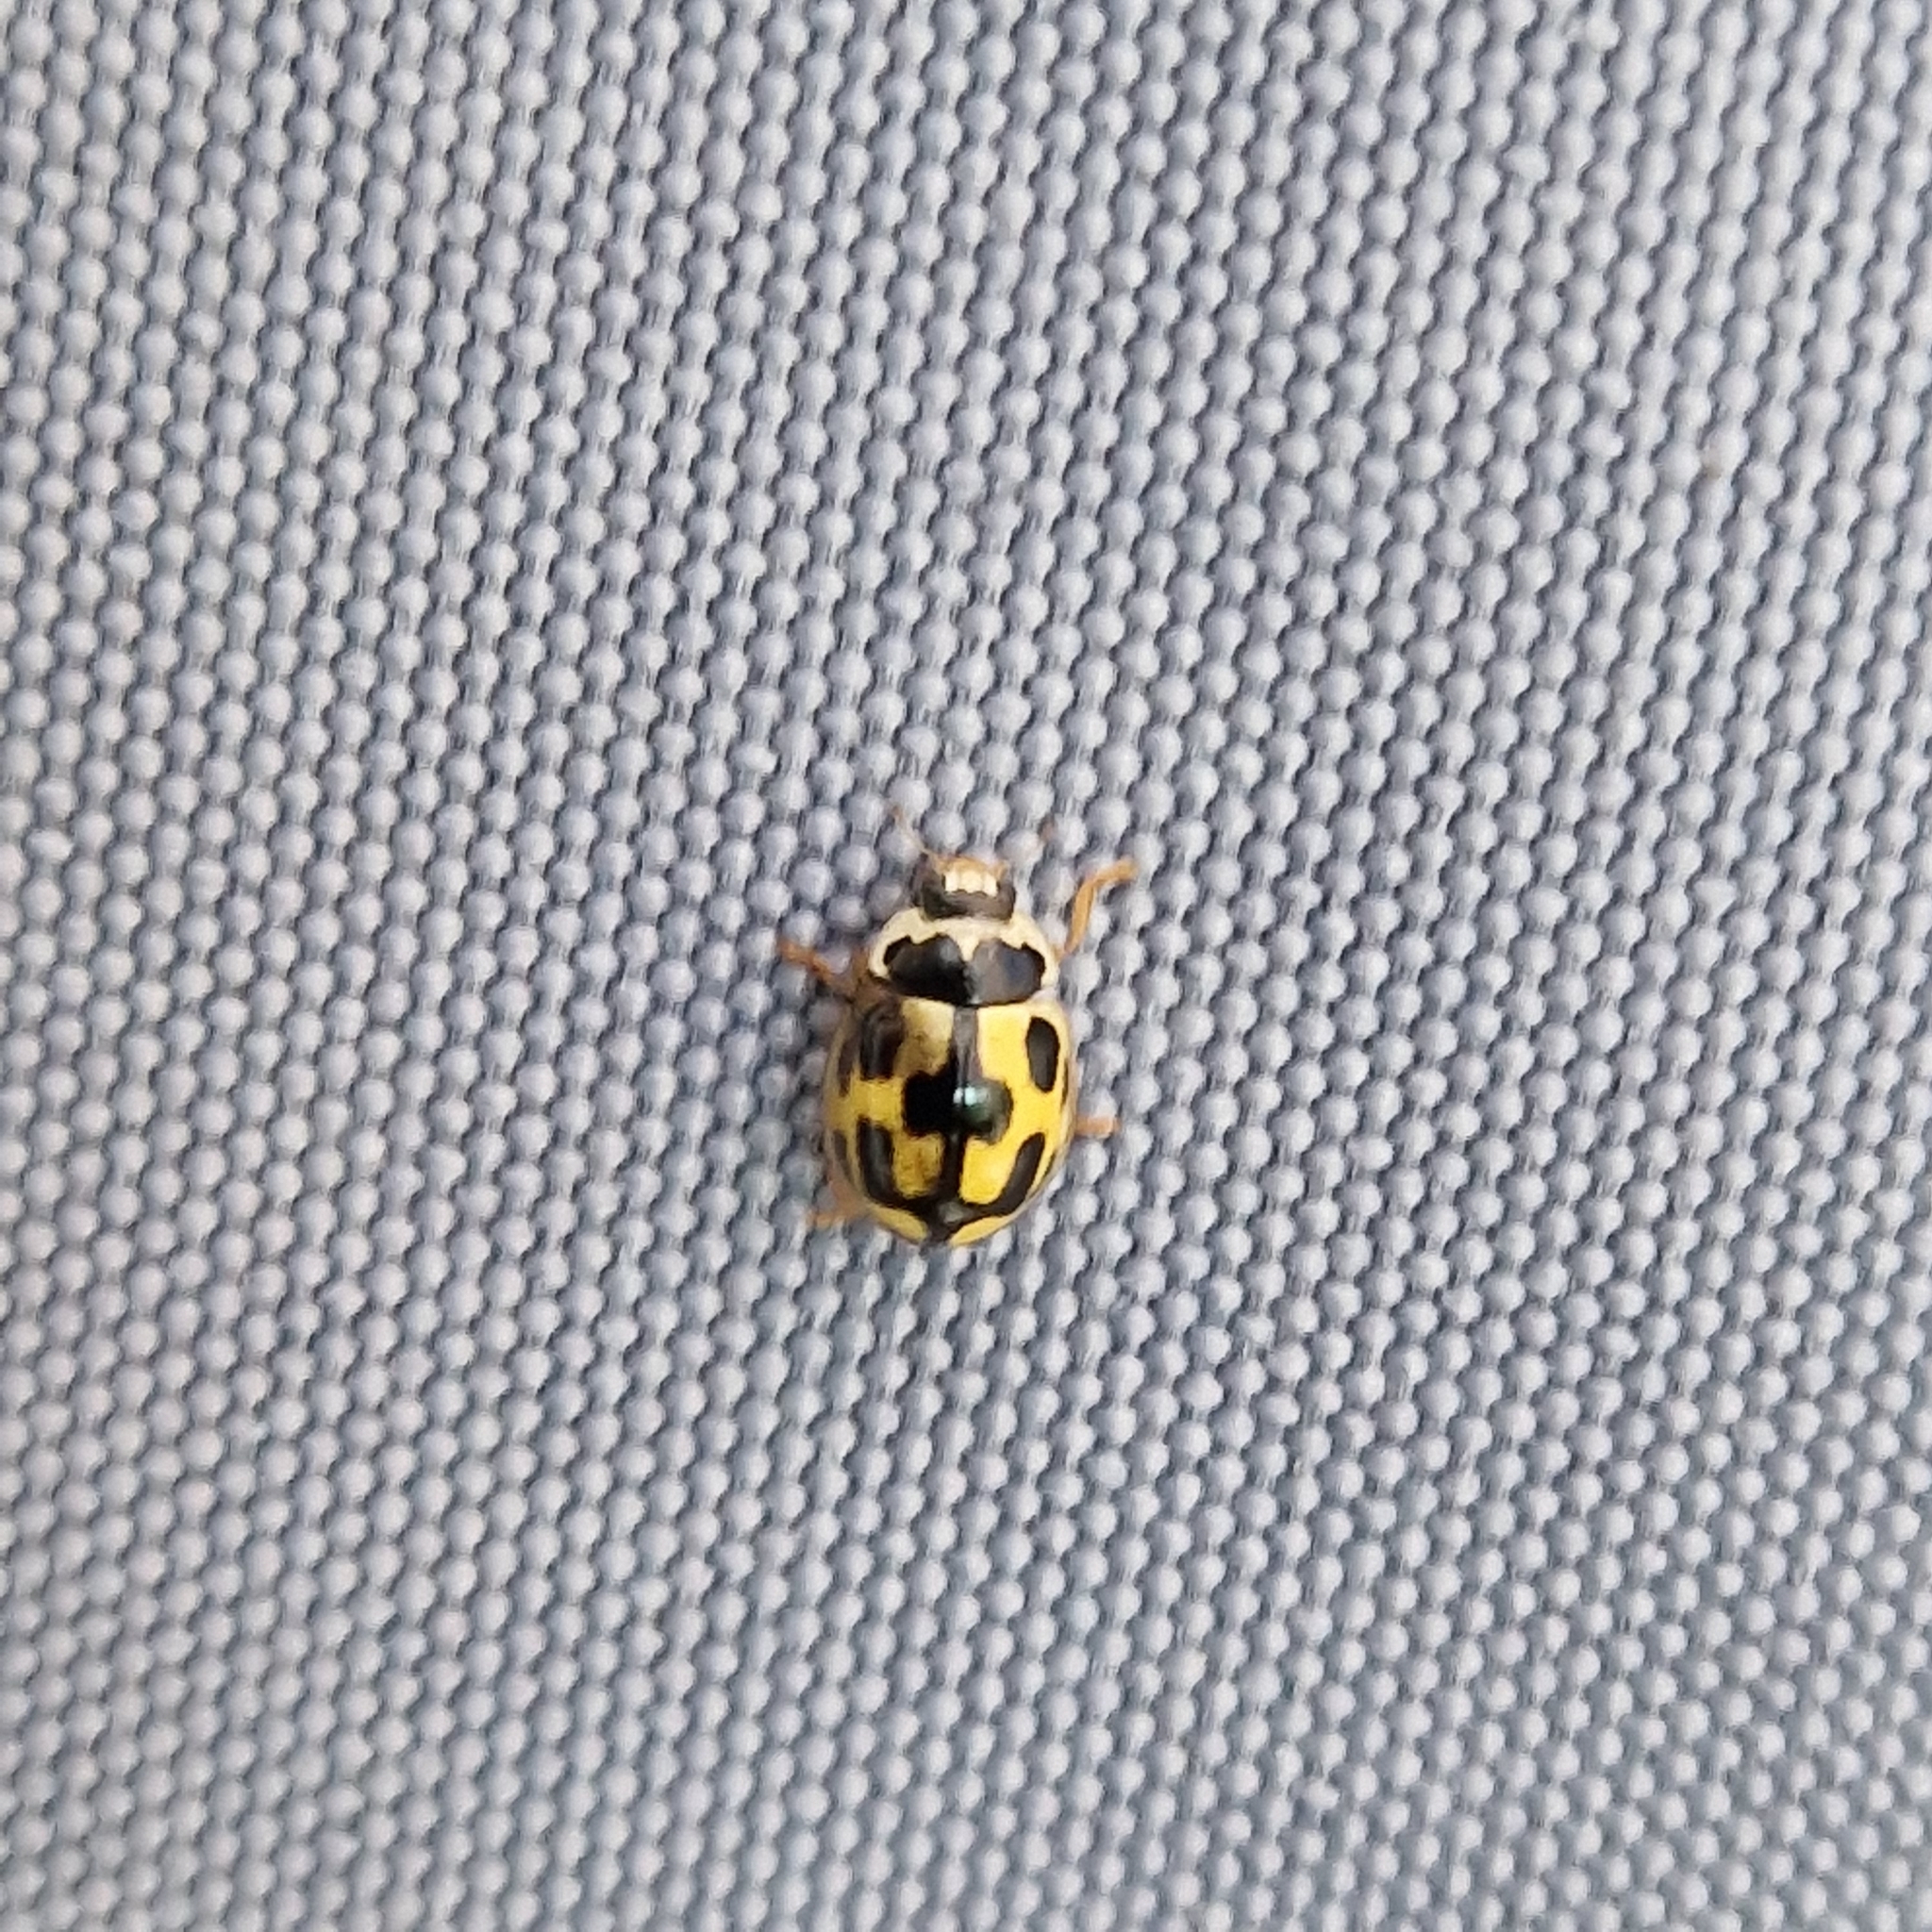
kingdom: Animalia
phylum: Arthropoda
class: Insecta
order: Coleoptera
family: Coccinellidae
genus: Propylaea
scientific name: Propylaea quatuordecimpunctata
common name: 14-spotted ladybird beetle
